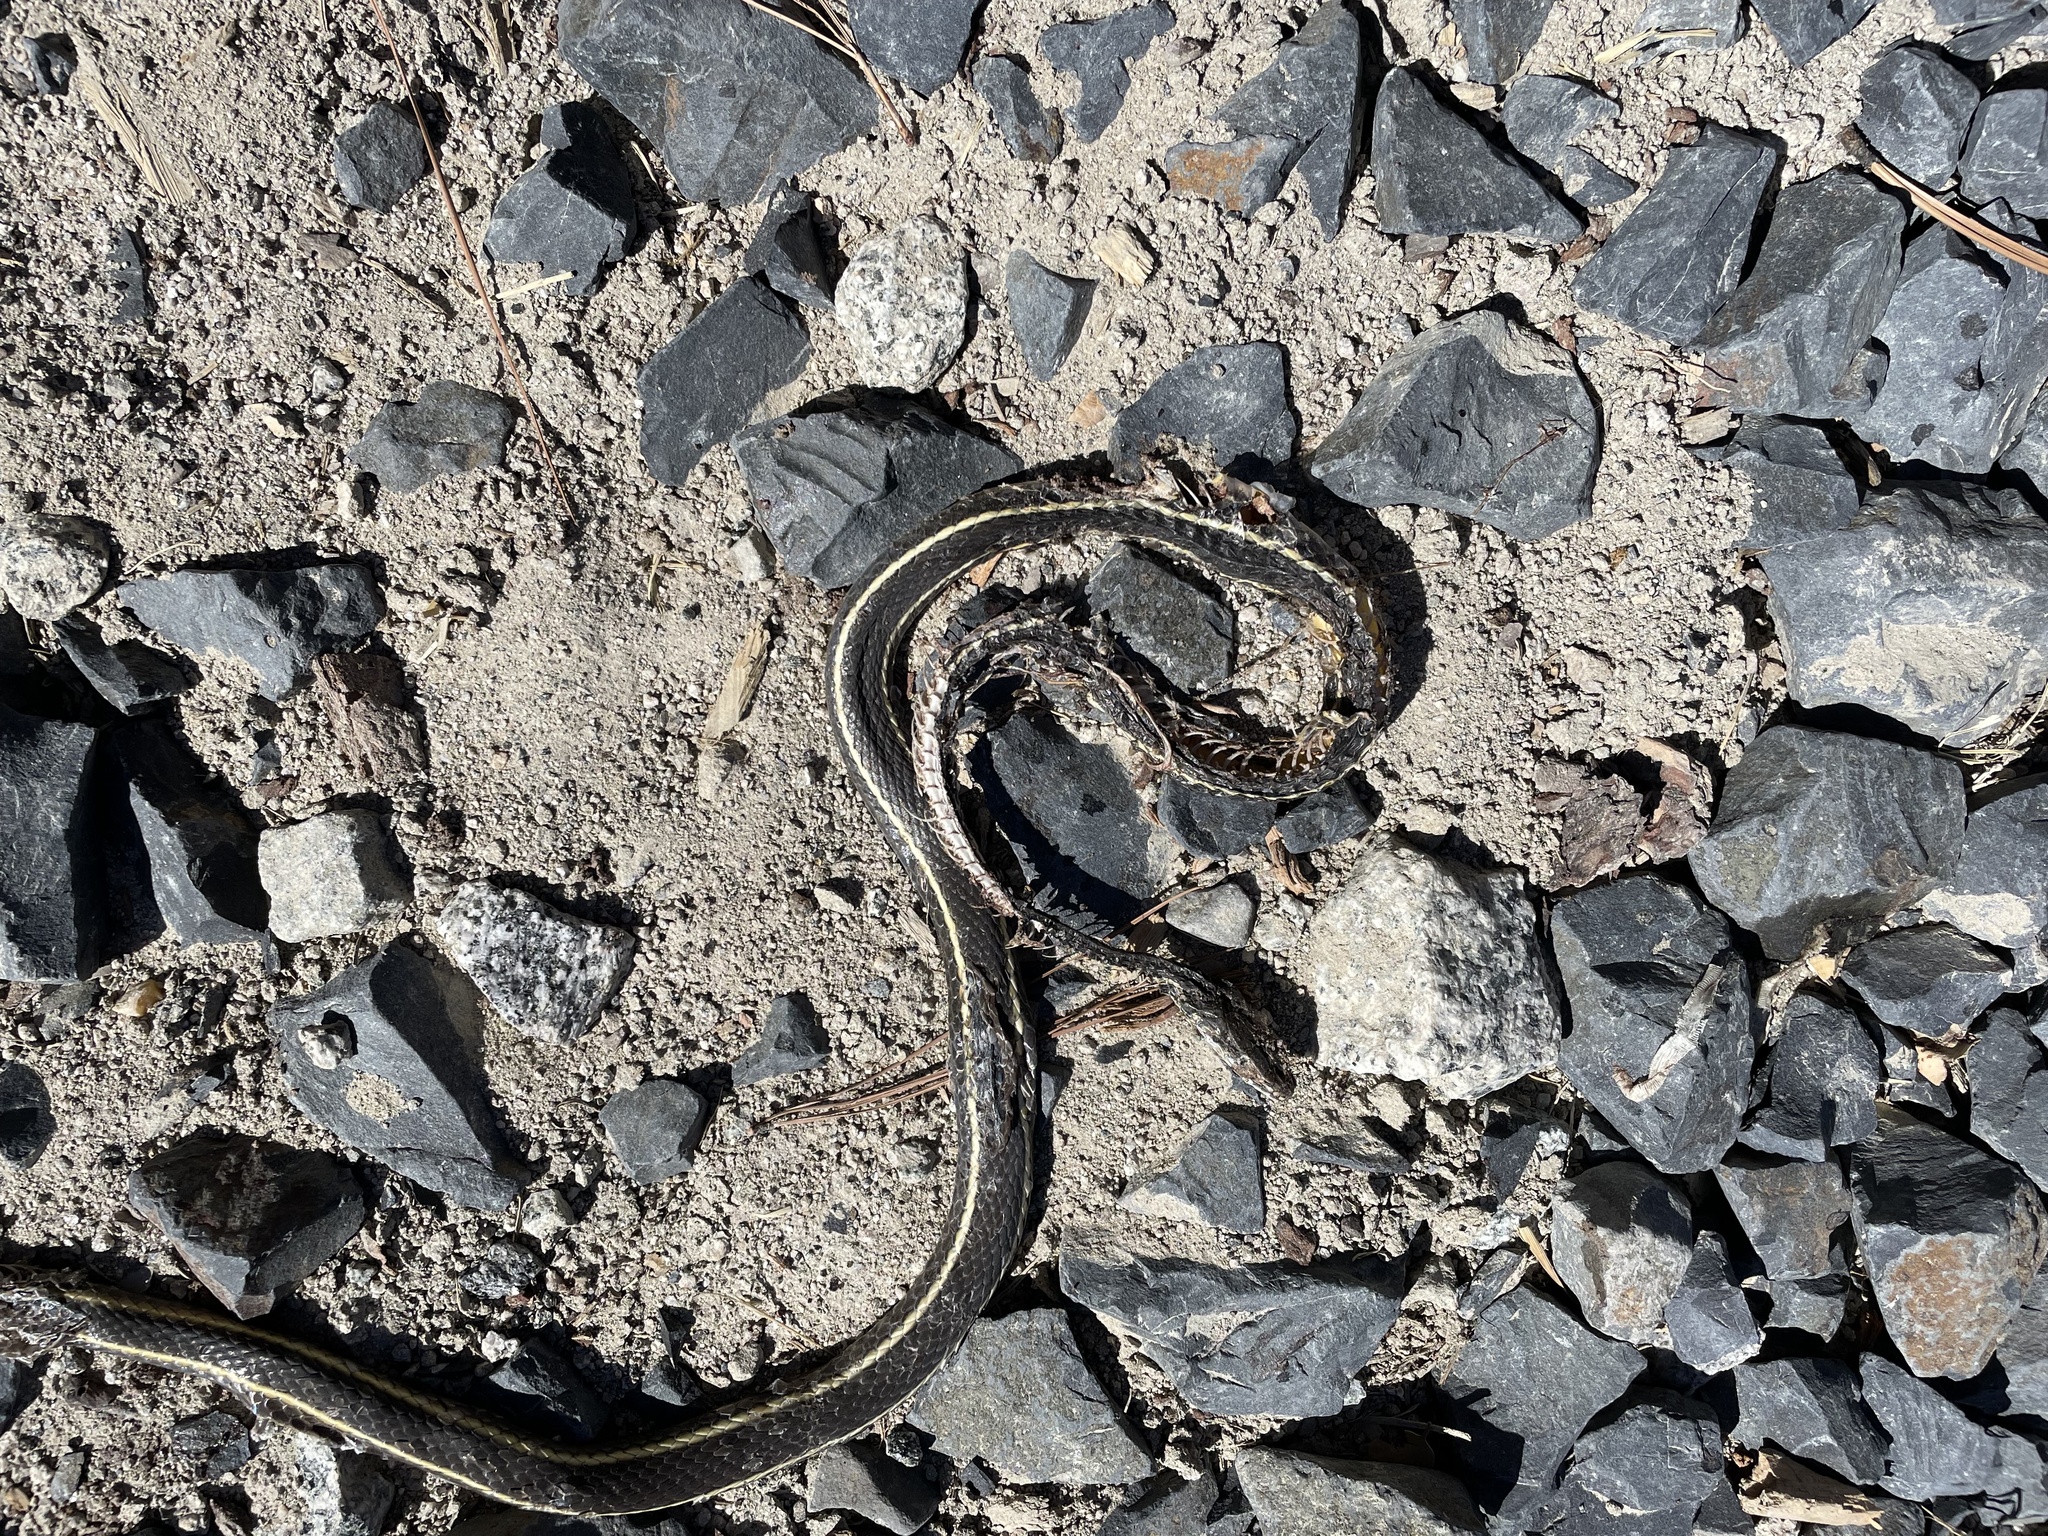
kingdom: Animalia
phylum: Chordata
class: Squamata
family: Colubridae
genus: Masticophis
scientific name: Masticophis lateralis
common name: Striped racer
